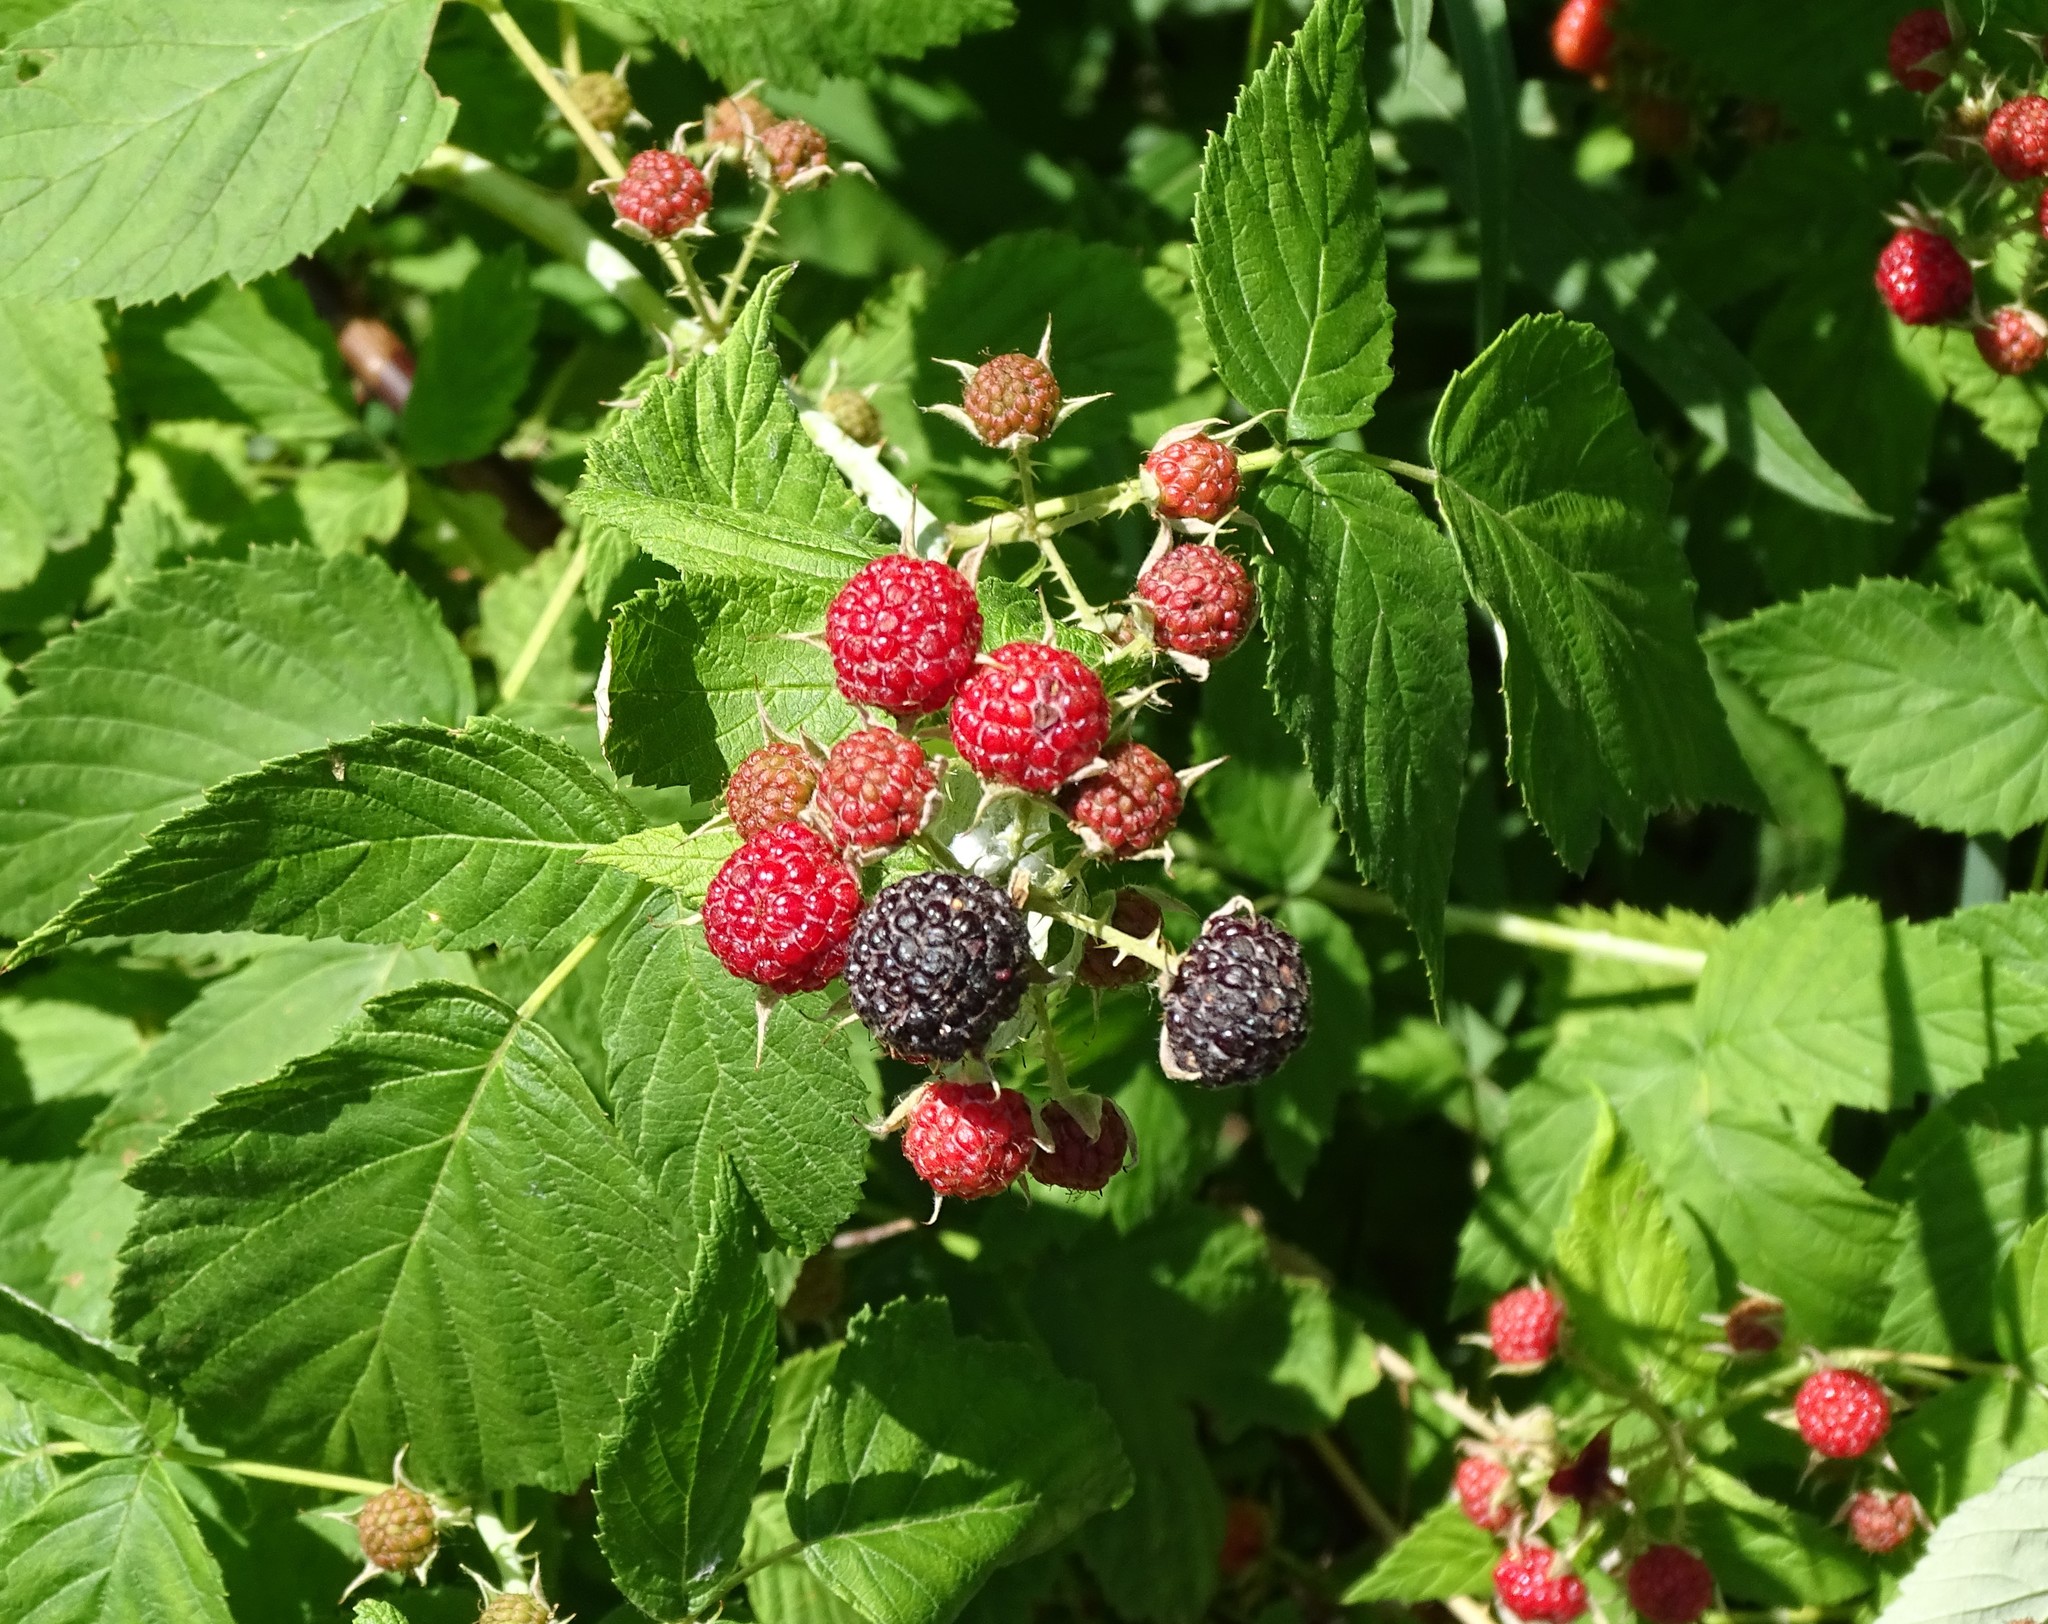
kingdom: Plantae
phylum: Tracheophyta
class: Magnoliopsida
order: Rosales
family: Rosaceae
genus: Rubus
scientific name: Rubus occidentalis
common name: Black raspberry
